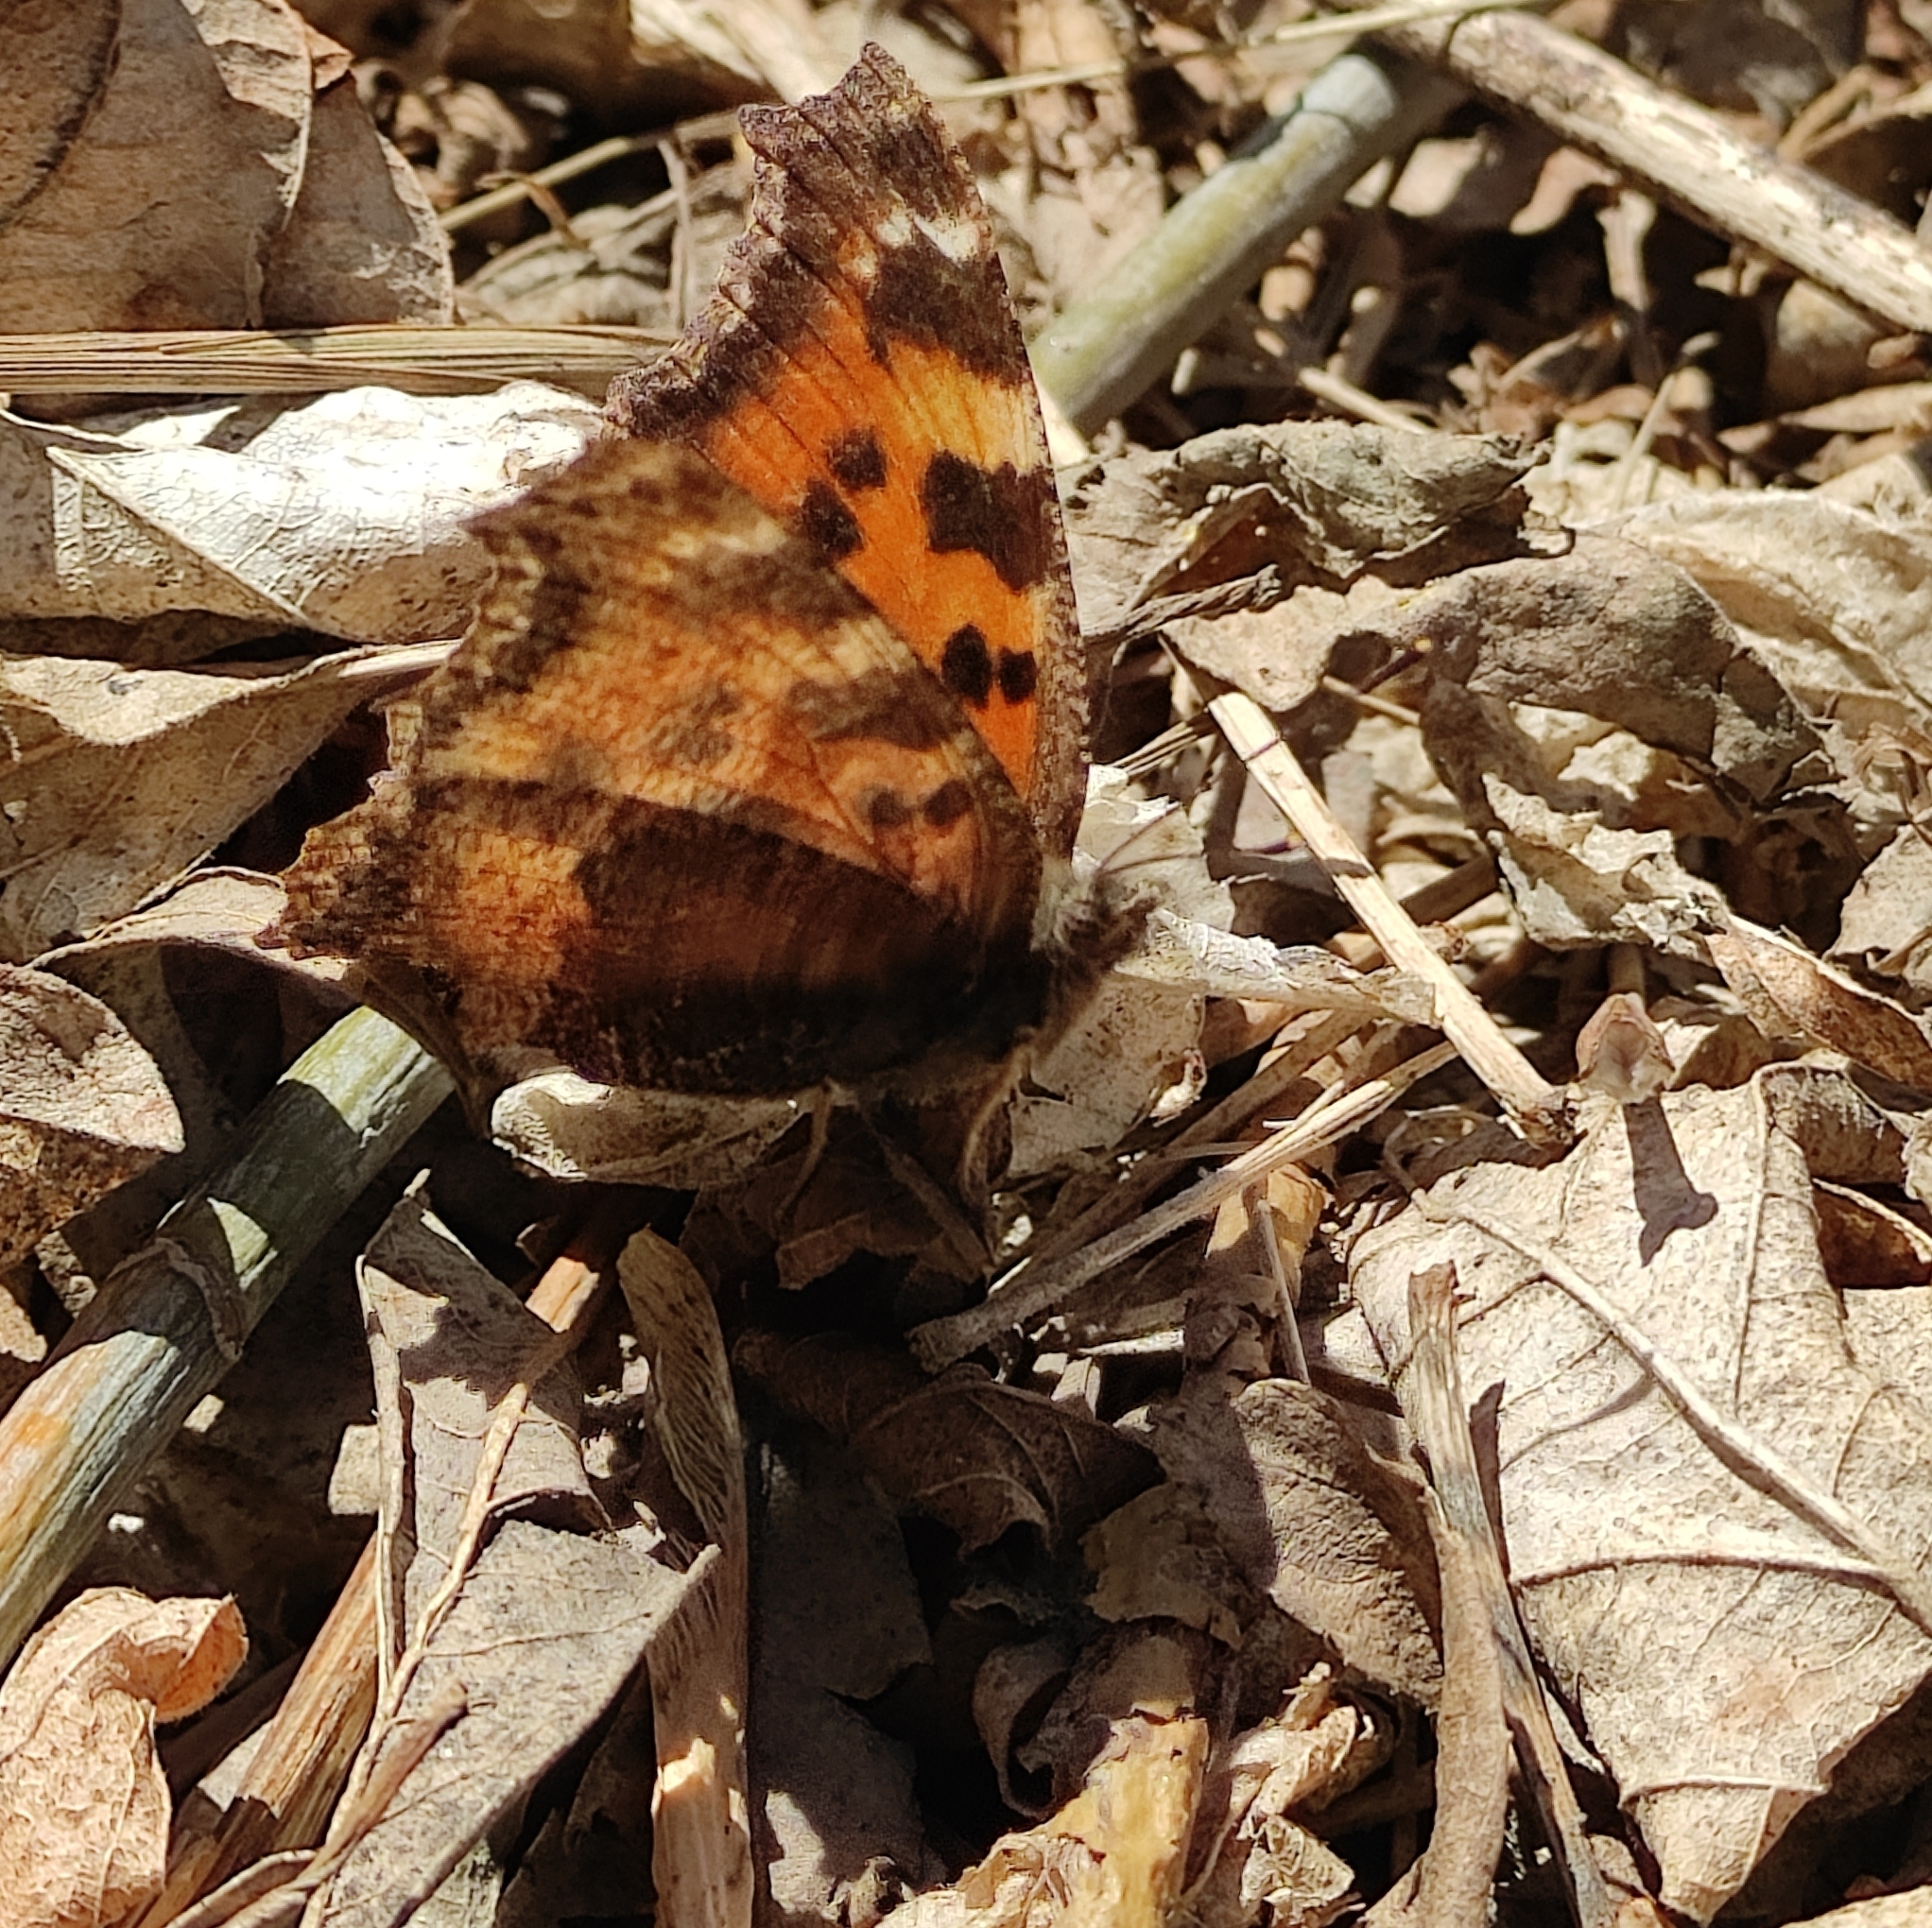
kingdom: Animalia
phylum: Arthropoda
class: Insecta
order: Lepidoptera
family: Nymphalidae
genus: Nymphalis
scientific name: Nymphalis xanthomelas
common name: Scarce tortoiseshell
